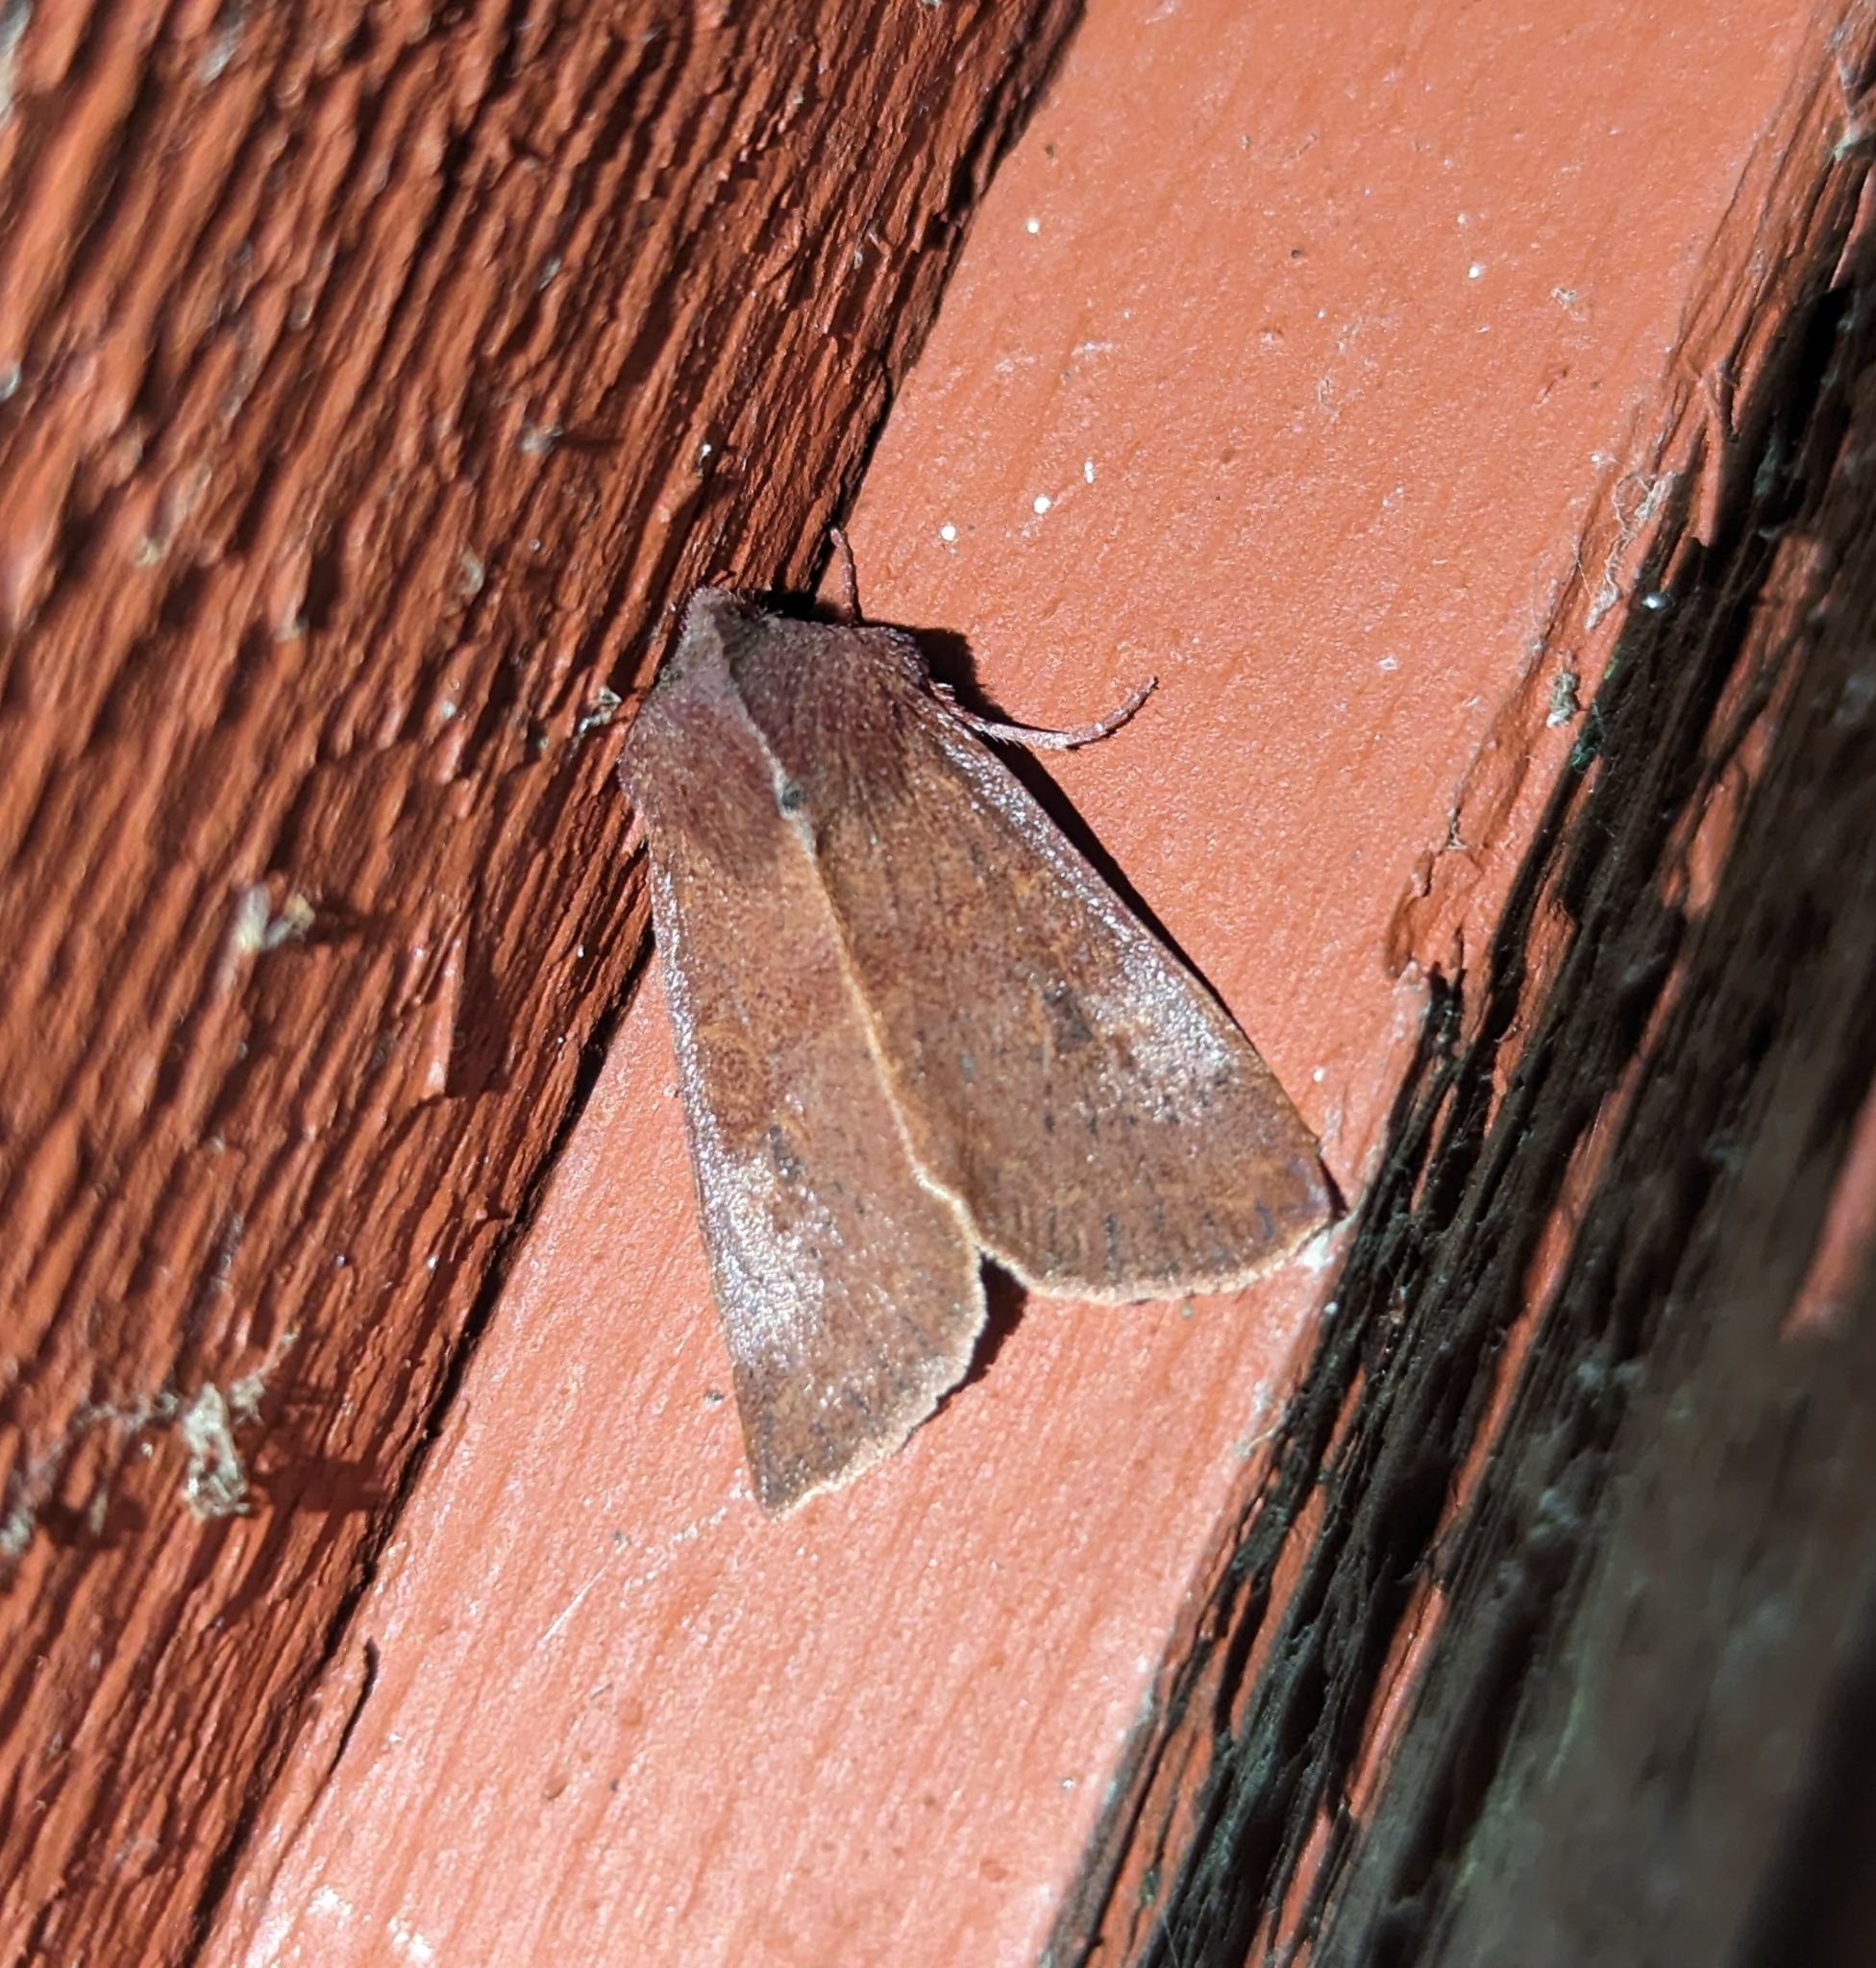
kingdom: Animalia
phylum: Arthropoda
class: Insecta
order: Lepidoptera
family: Noctuidae
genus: Orthosia
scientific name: Orthosia transparens
